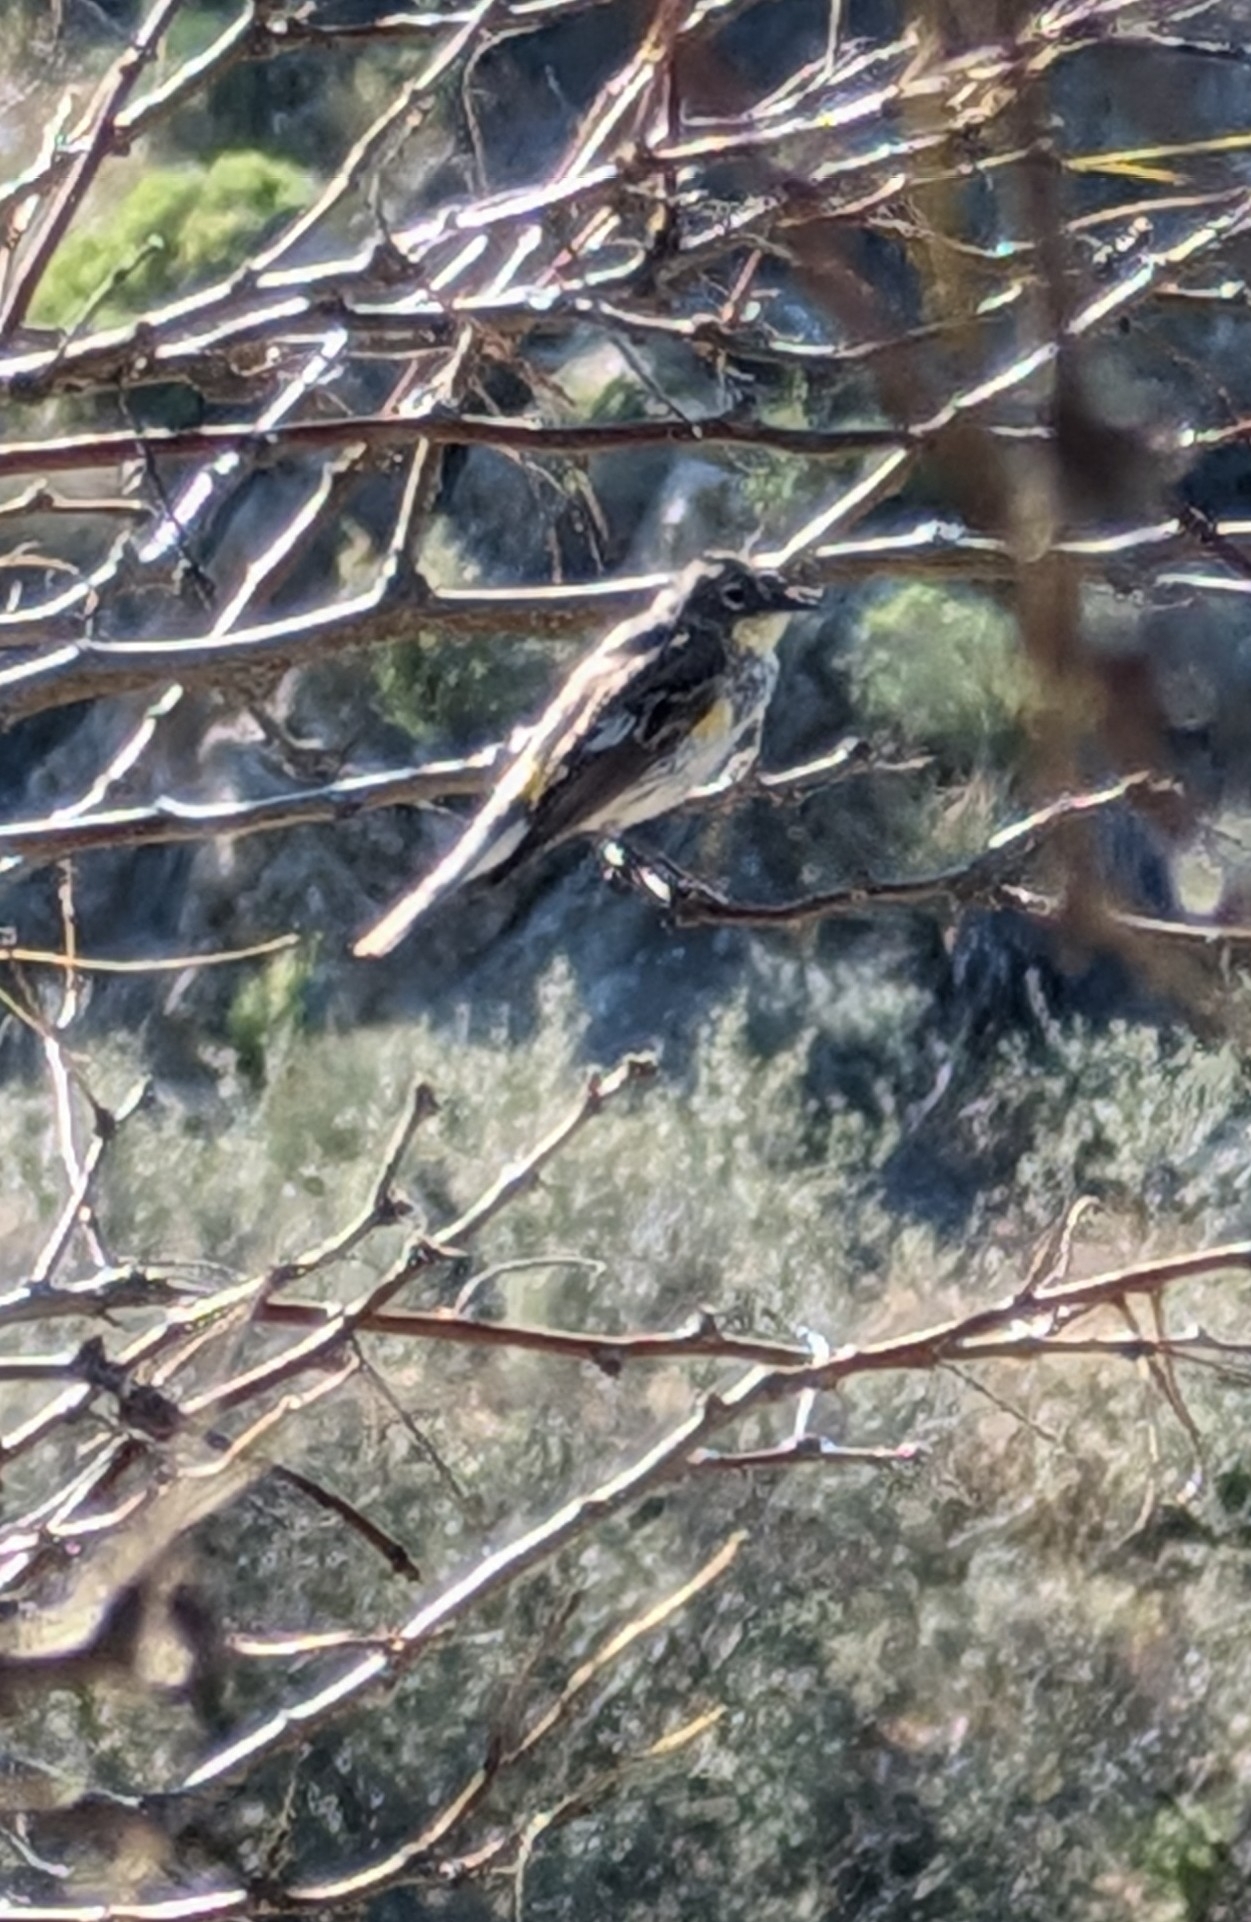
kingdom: Animalia
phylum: Chordata
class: Aves
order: Passeriformes
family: Parulidae
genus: Setophaga
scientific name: Setophaga coronata
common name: Myrtle warbler
